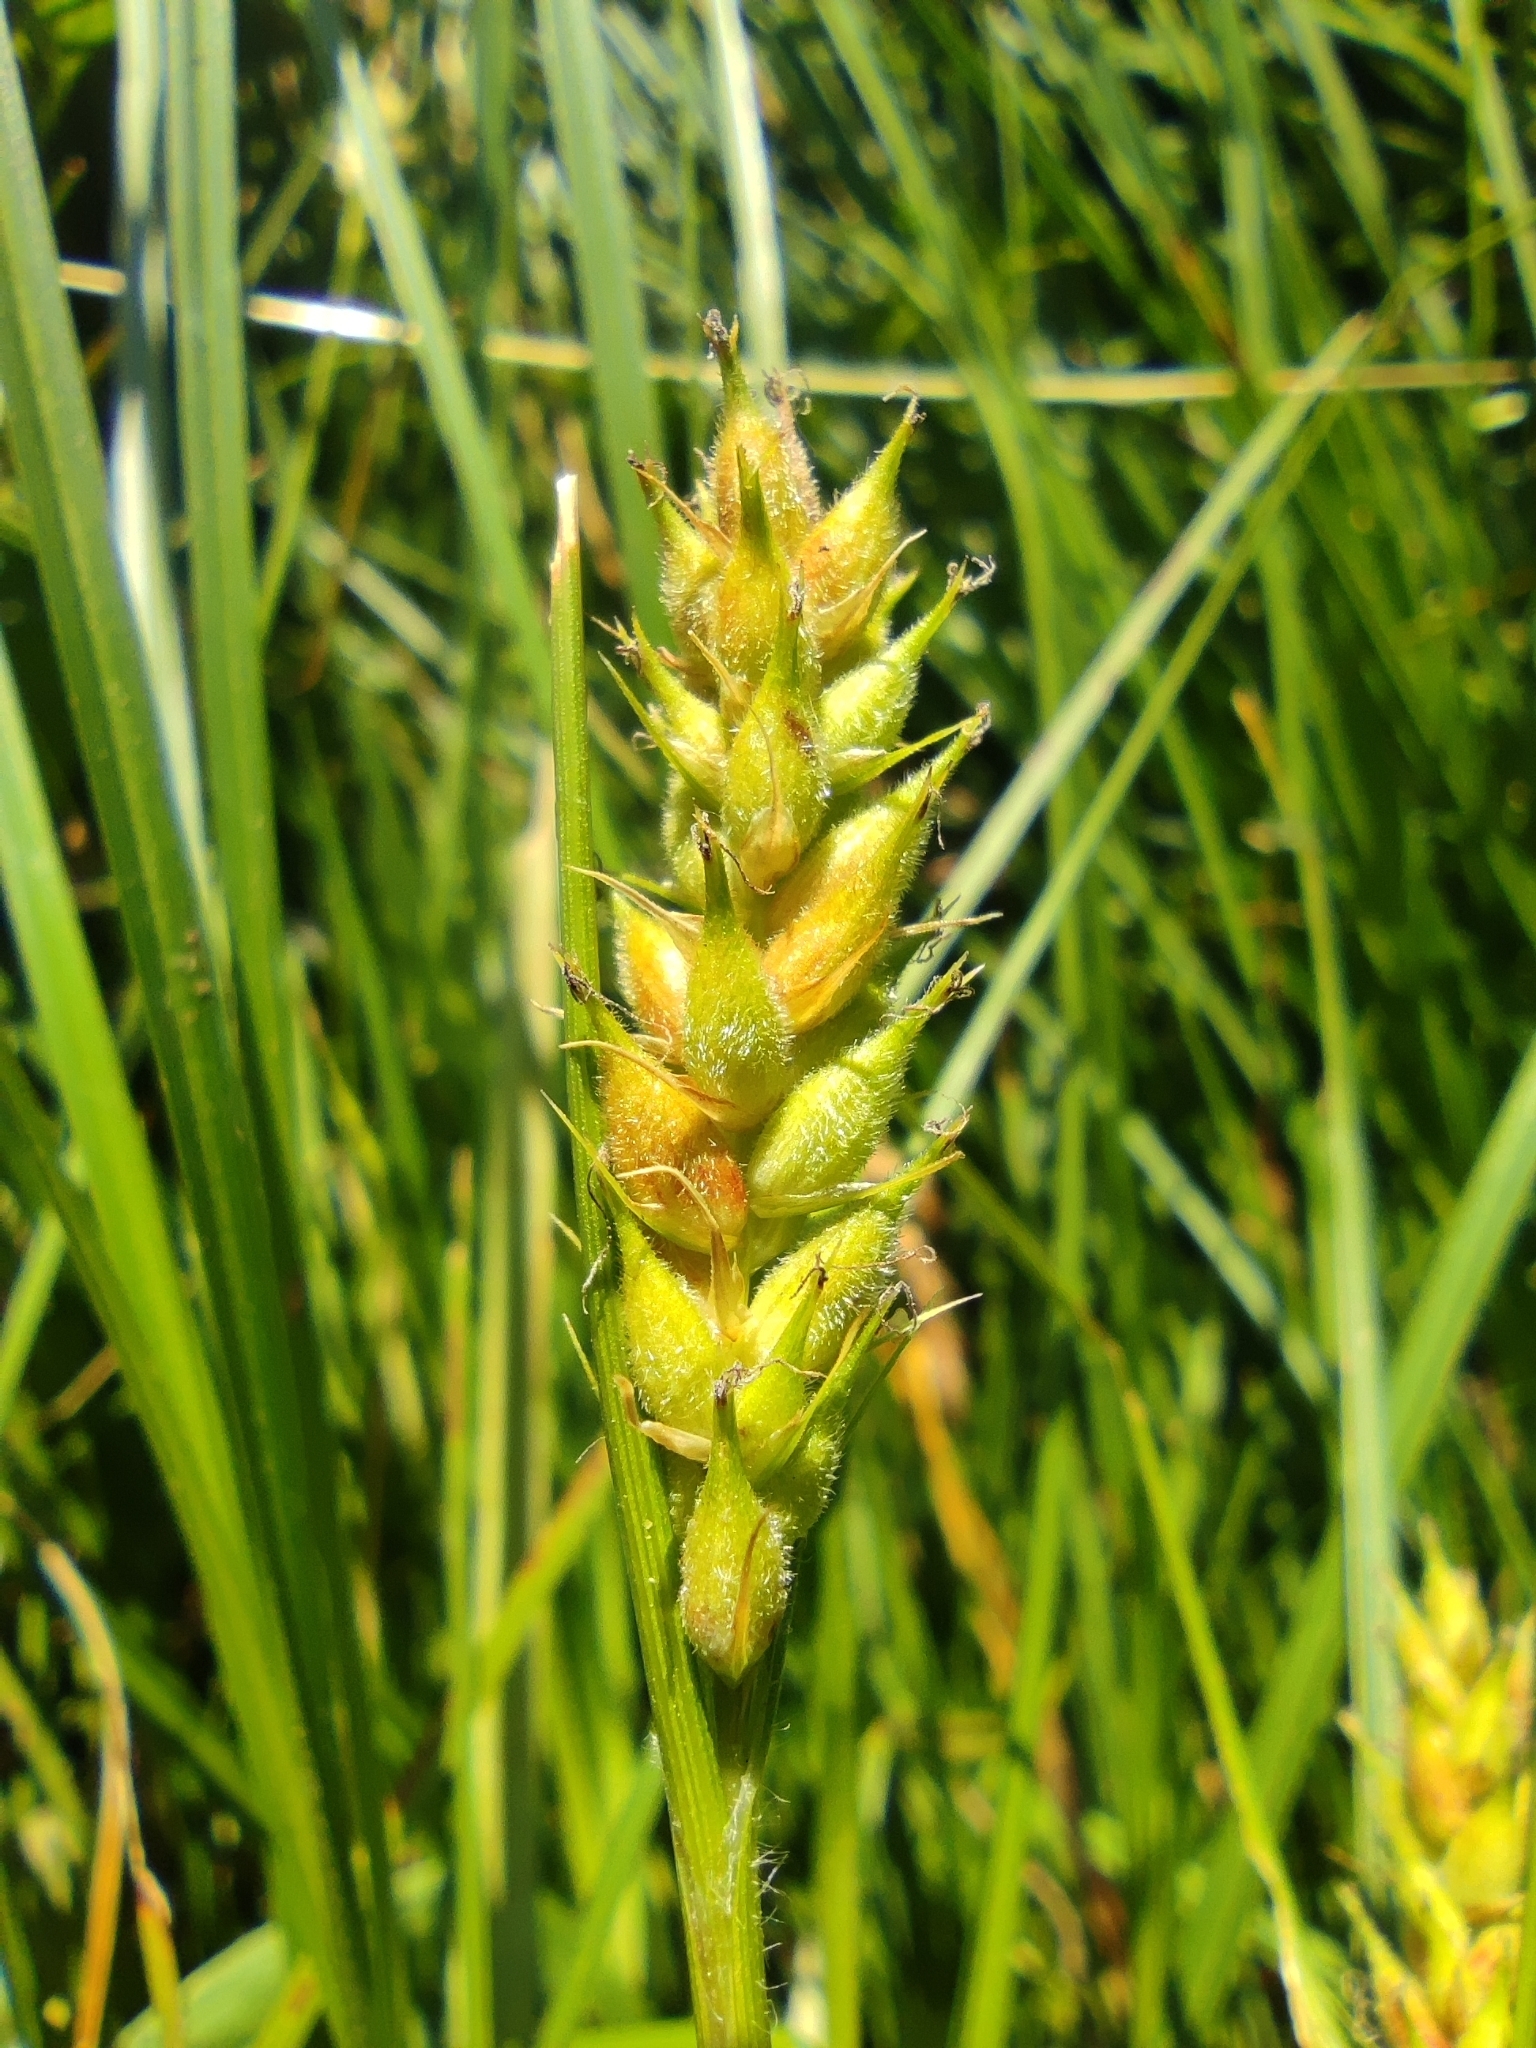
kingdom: Plantae
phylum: Tracheophyta
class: Liliopsida
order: Poales
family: Cyperaceae
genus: Carex
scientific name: Carex hirta
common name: Hairy sedge
